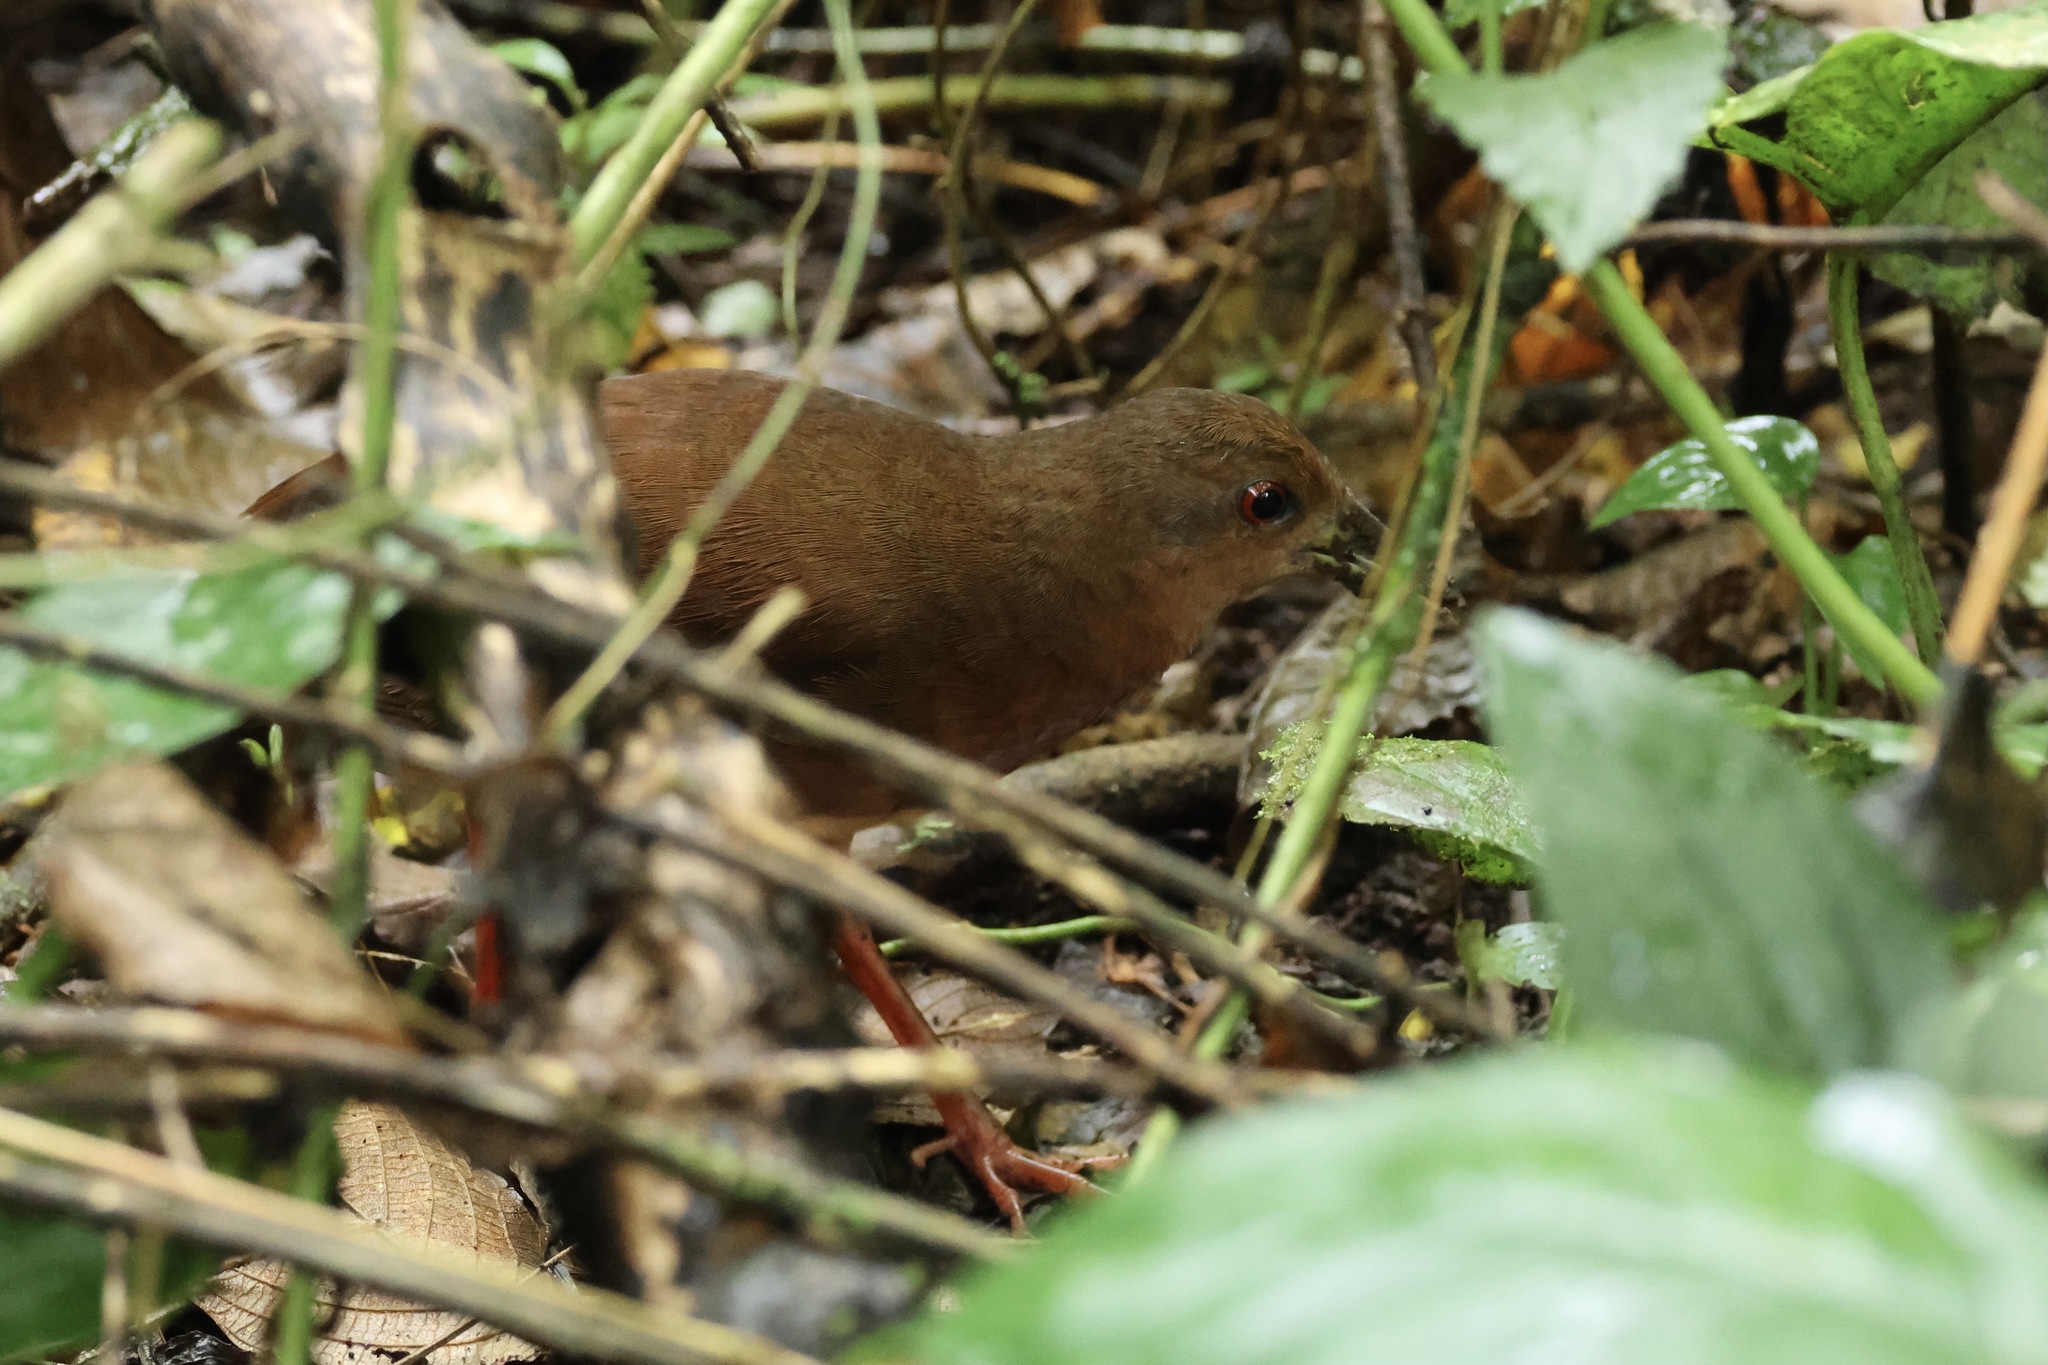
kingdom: Animalia
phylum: Chordata
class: Aves
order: Gruiformes
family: Rallidae
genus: Amaurolimnas
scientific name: Amaurolimnas concolor
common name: Uniform crake
